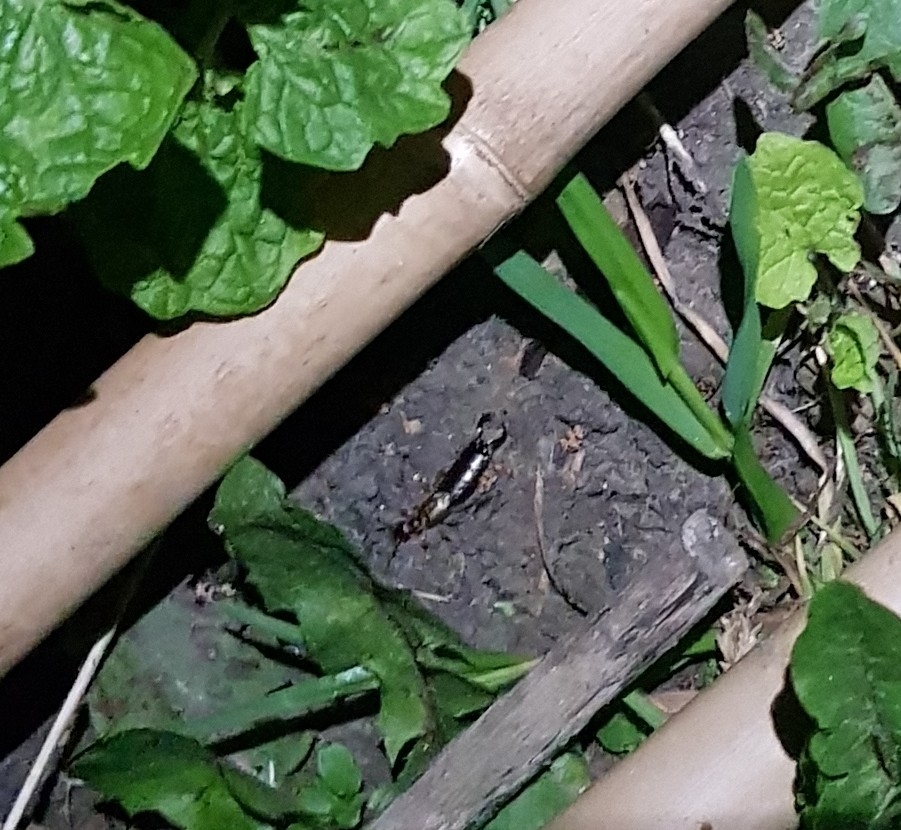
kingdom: Animalia
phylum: Arthropoda
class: Insecta
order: Dermaptera
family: Forficulidae
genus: Forficula
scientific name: Forficula
